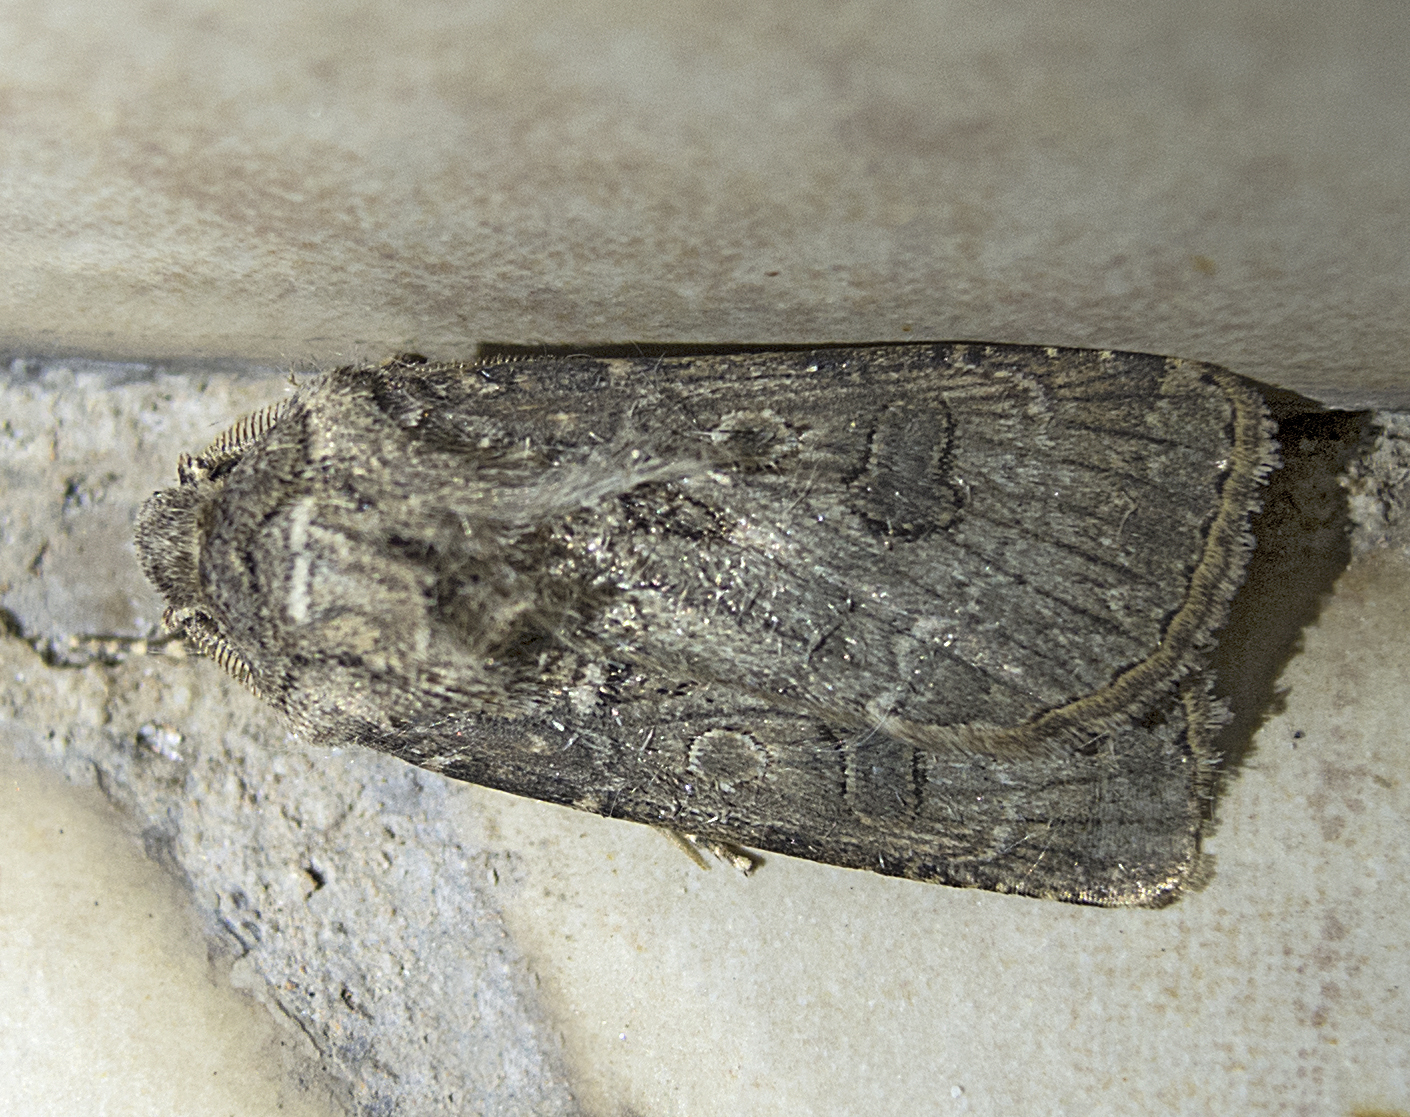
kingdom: Animalia
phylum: Arthropoda
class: Insecta
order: Lepidoptera
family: Noctuidae
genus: Agrotis
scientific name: Agrotis bigramma
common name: Great dart
